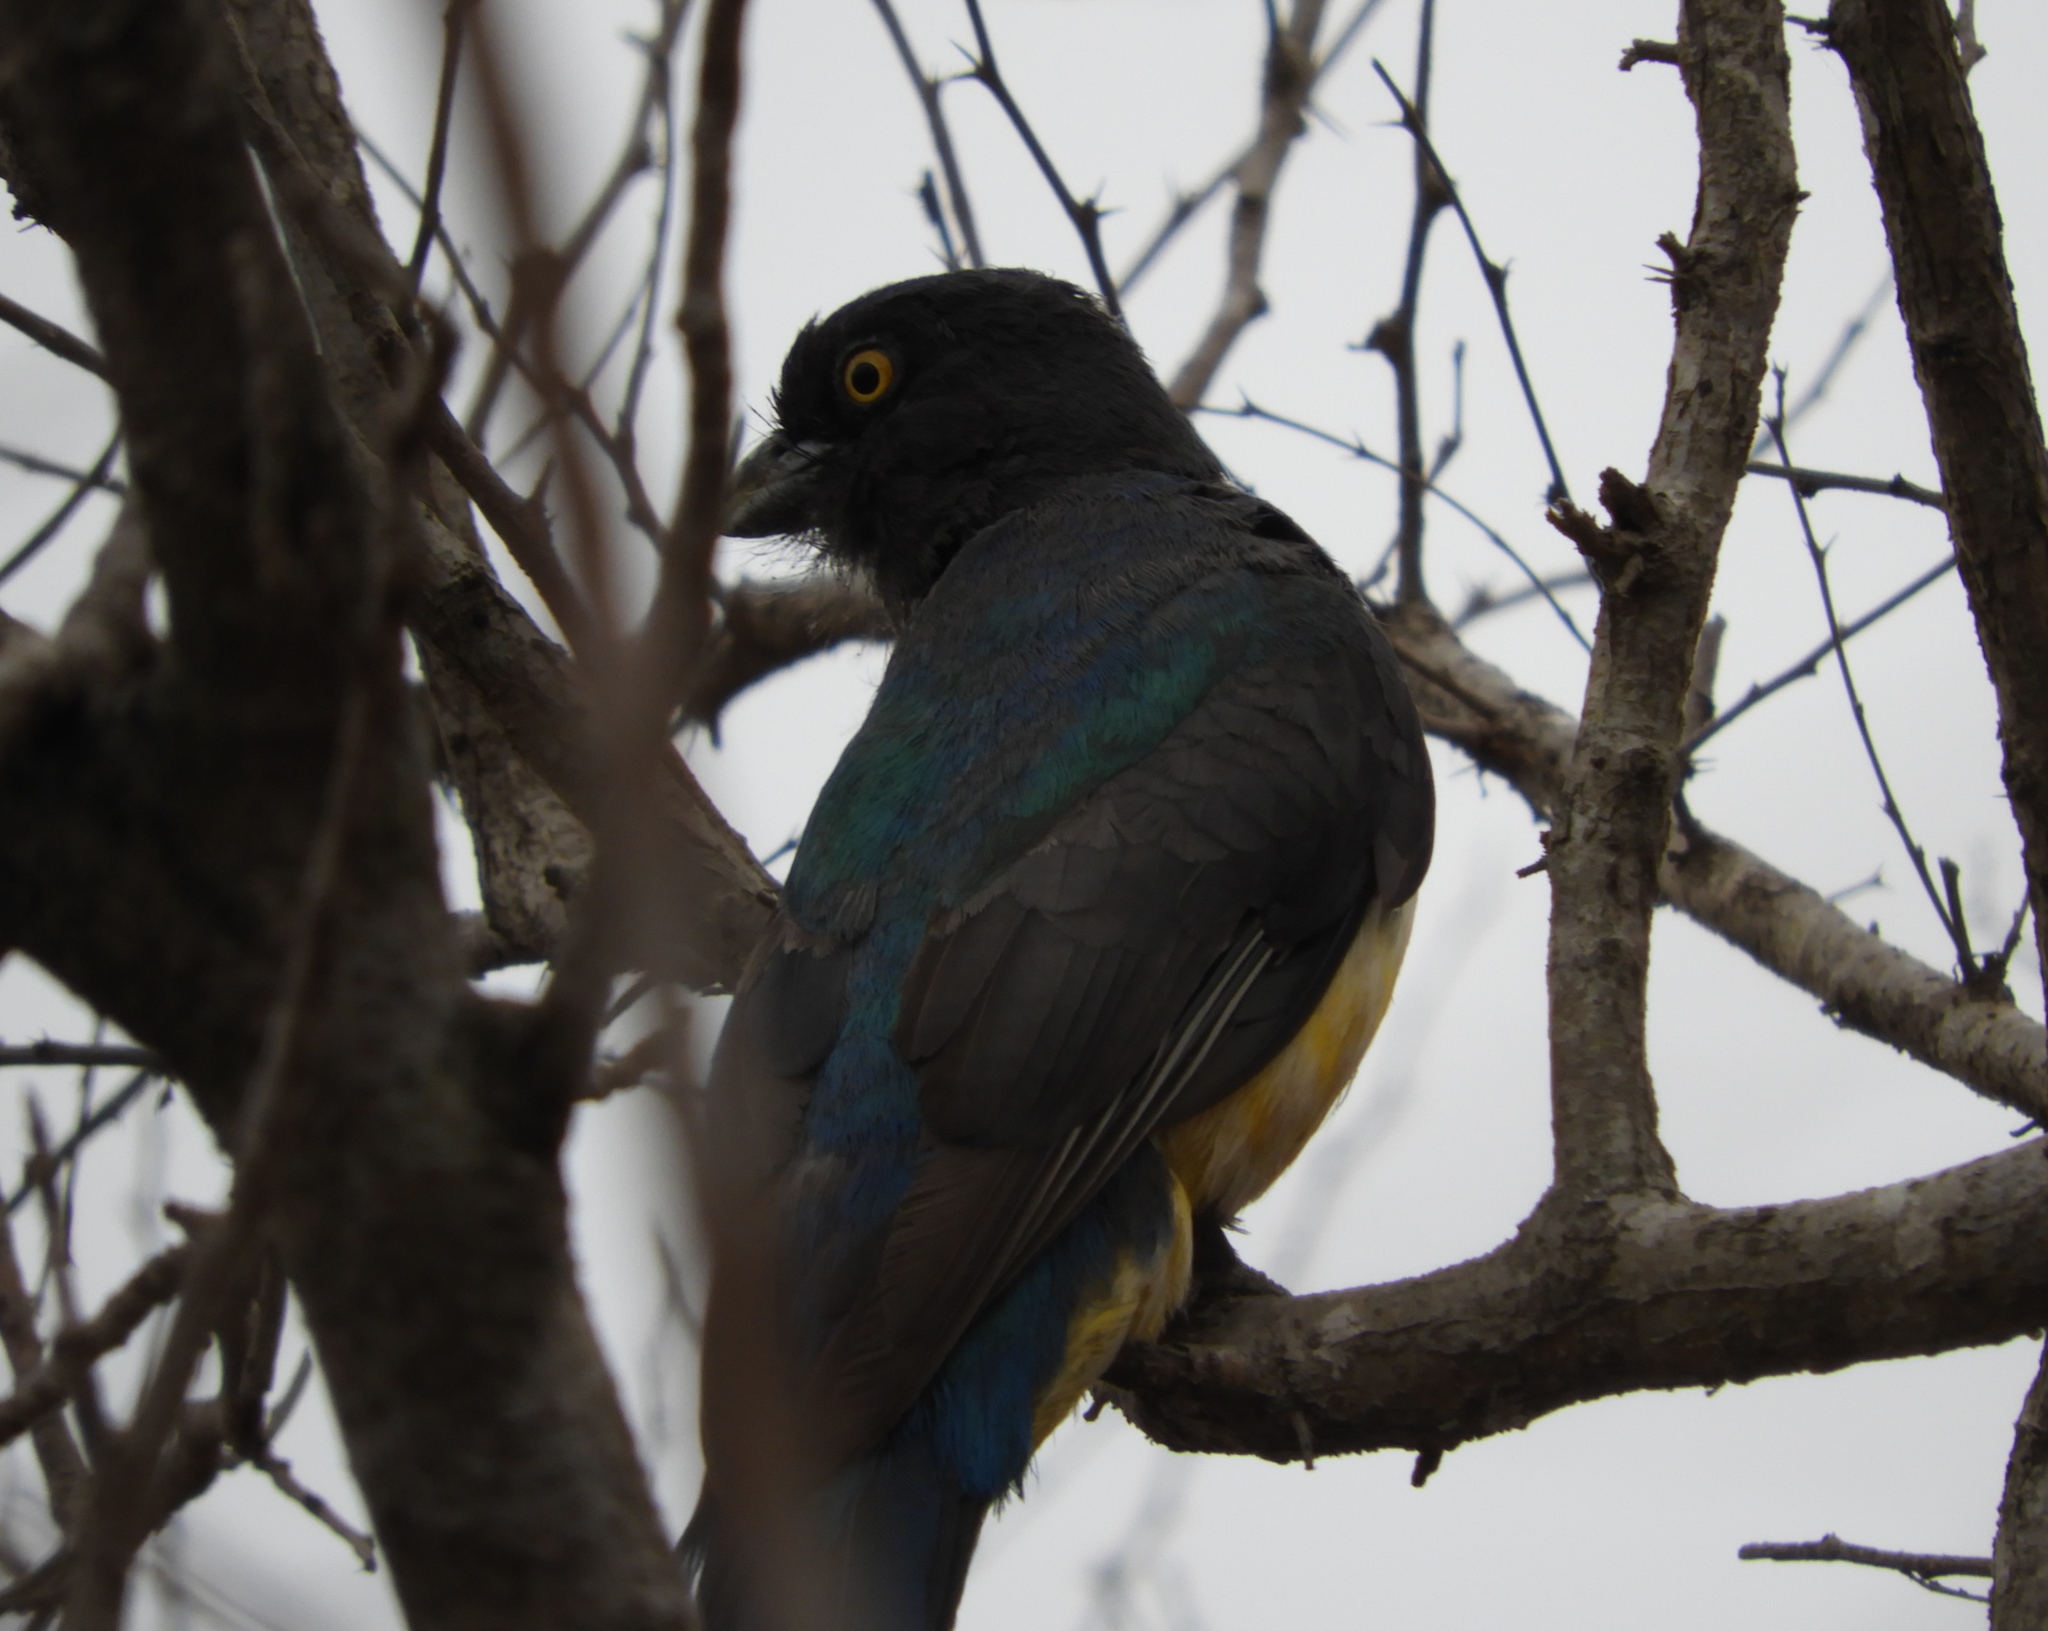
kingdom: Animalia
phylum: Chordata
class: Aves
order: Trogoniformes
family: Trogonidae
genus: Trogon
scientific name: Trogon citreolus
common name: Citreoline trogon
